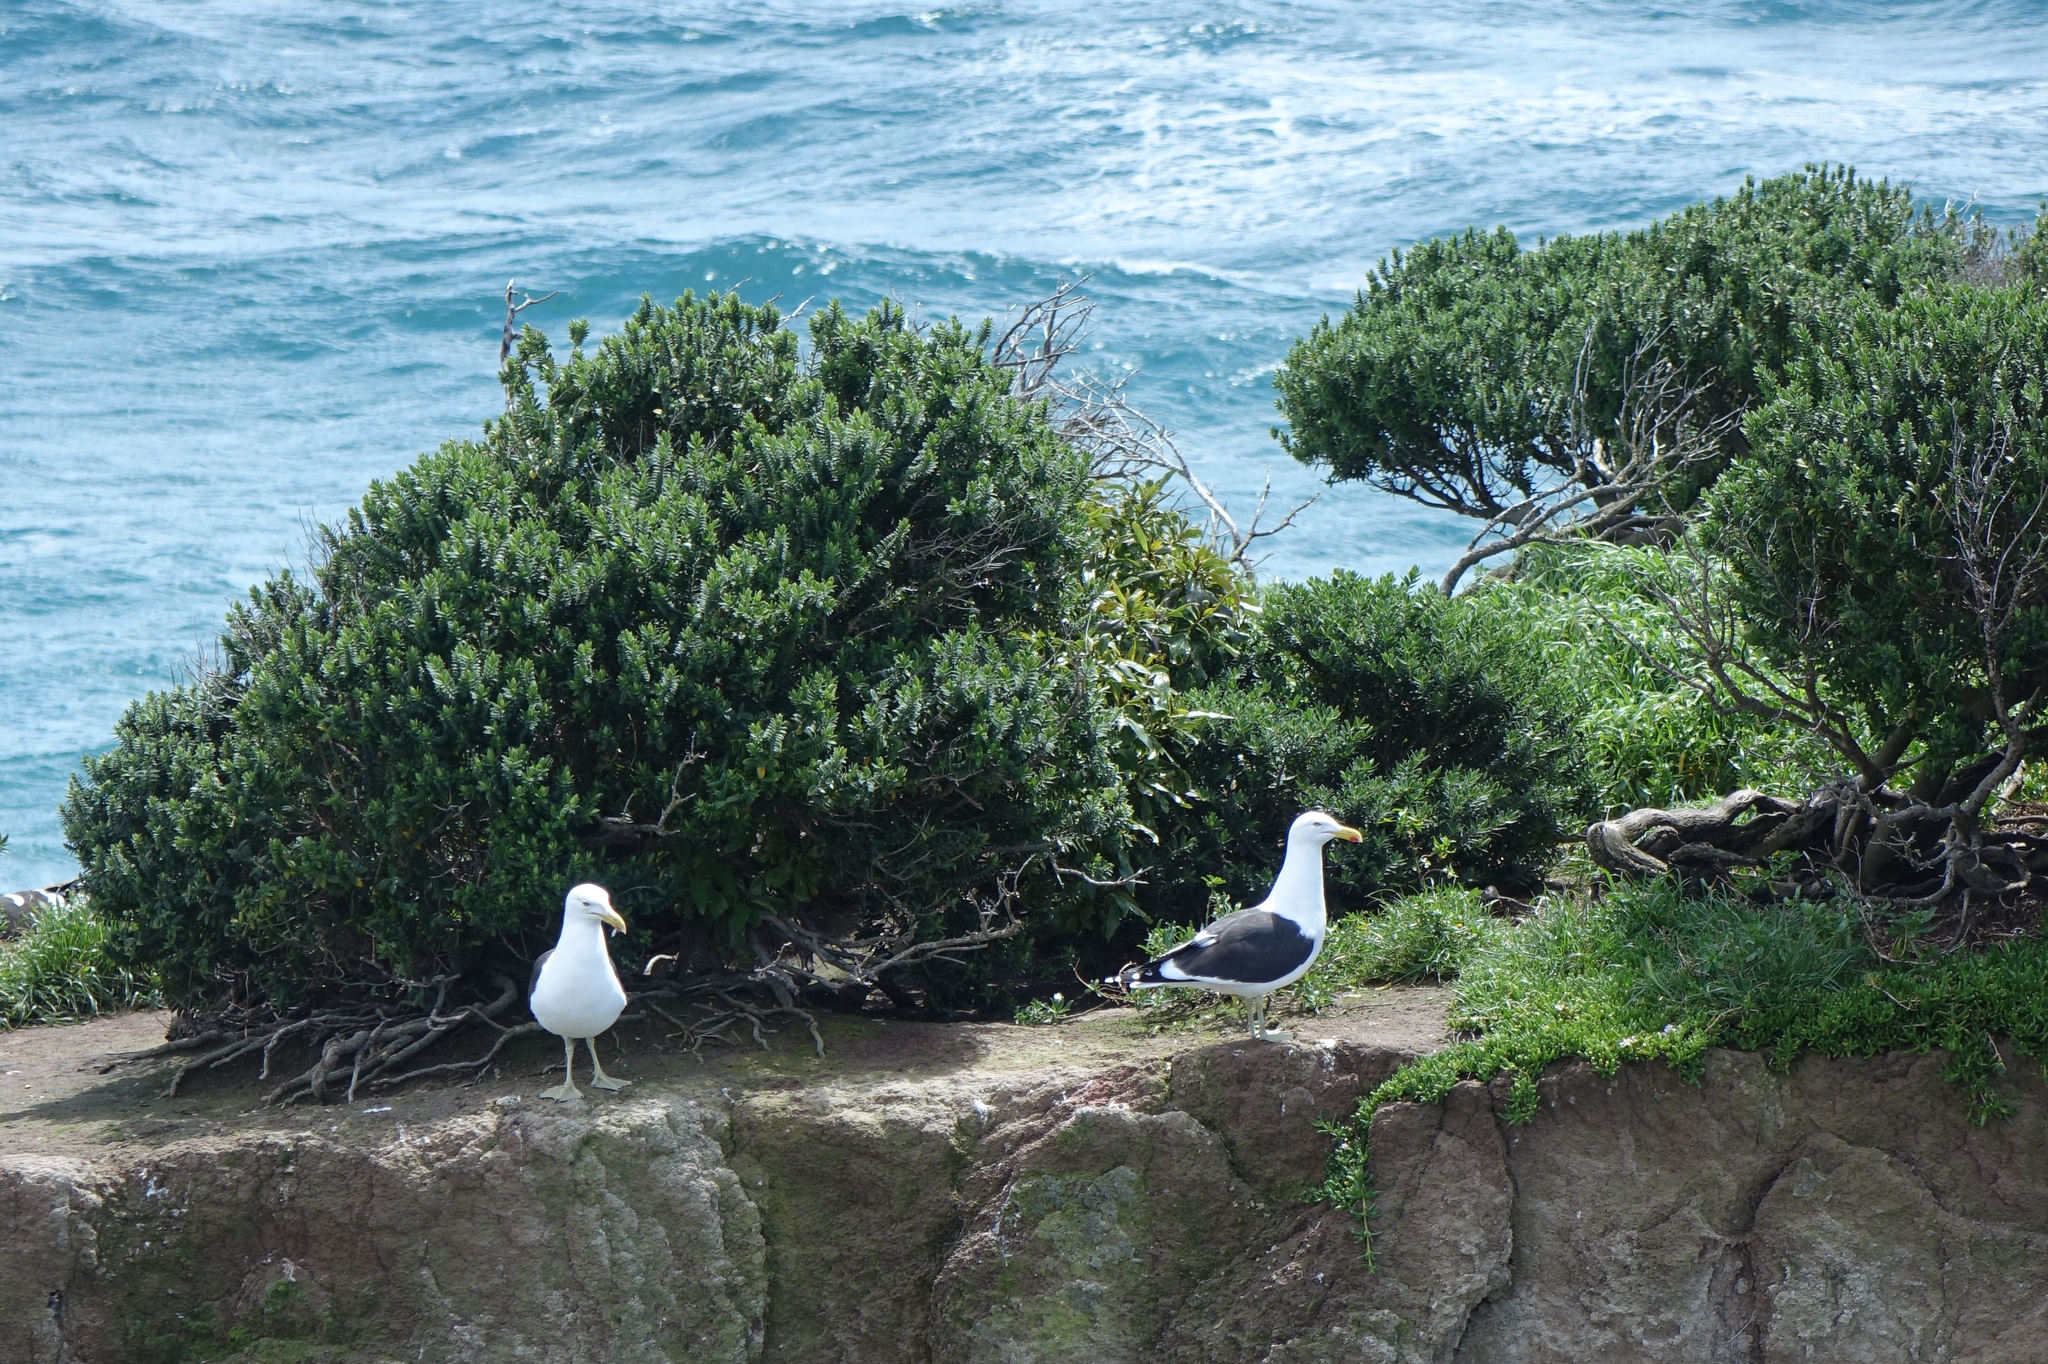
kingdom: Animalia
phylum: Chordata
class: Aves
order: Charadriiformes
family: Laridae
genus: Larus
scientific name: Larus dominicanus
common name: Kelp gull
